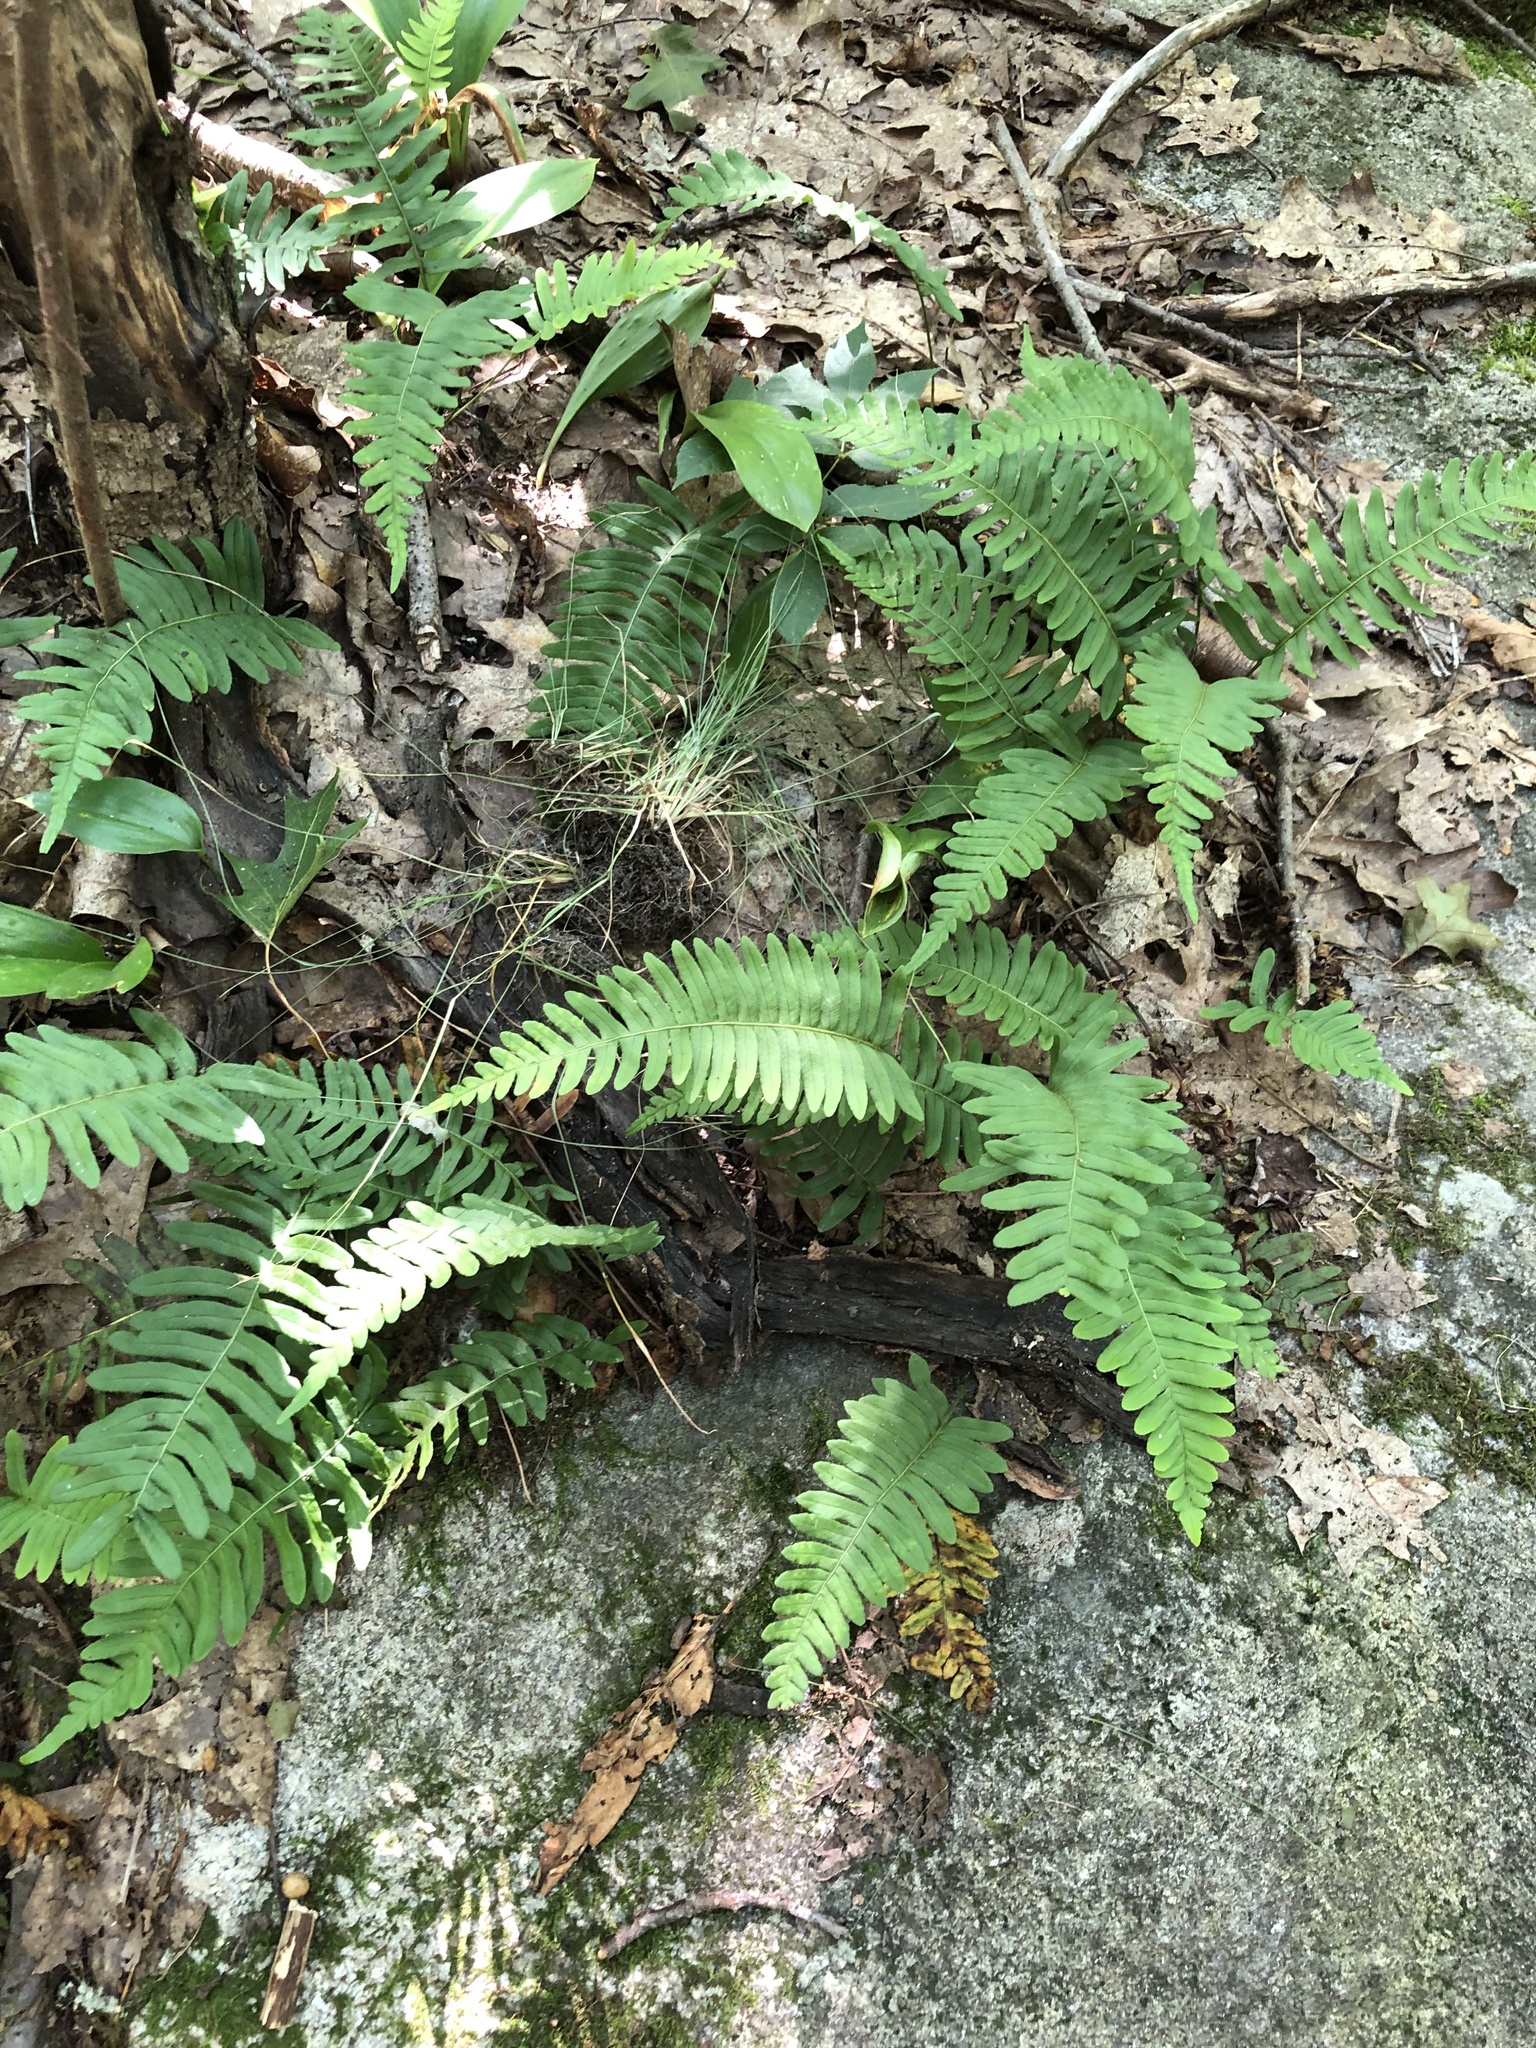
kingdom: Plantae
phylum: Tracheophyta
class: Polypodiopsida
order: Polypodiales
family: Polypodiaceae
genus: Polypodium
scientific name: Polypodium virginianum
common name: American wall fern
